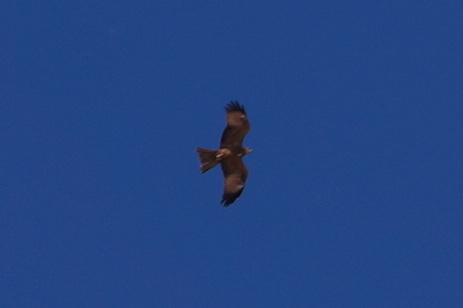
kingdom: Animalia
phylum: Chordata
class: Aves
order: Accipitriformes
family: Accipitridae
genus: Milvus
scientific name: Milvus migrans
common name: Black kite
